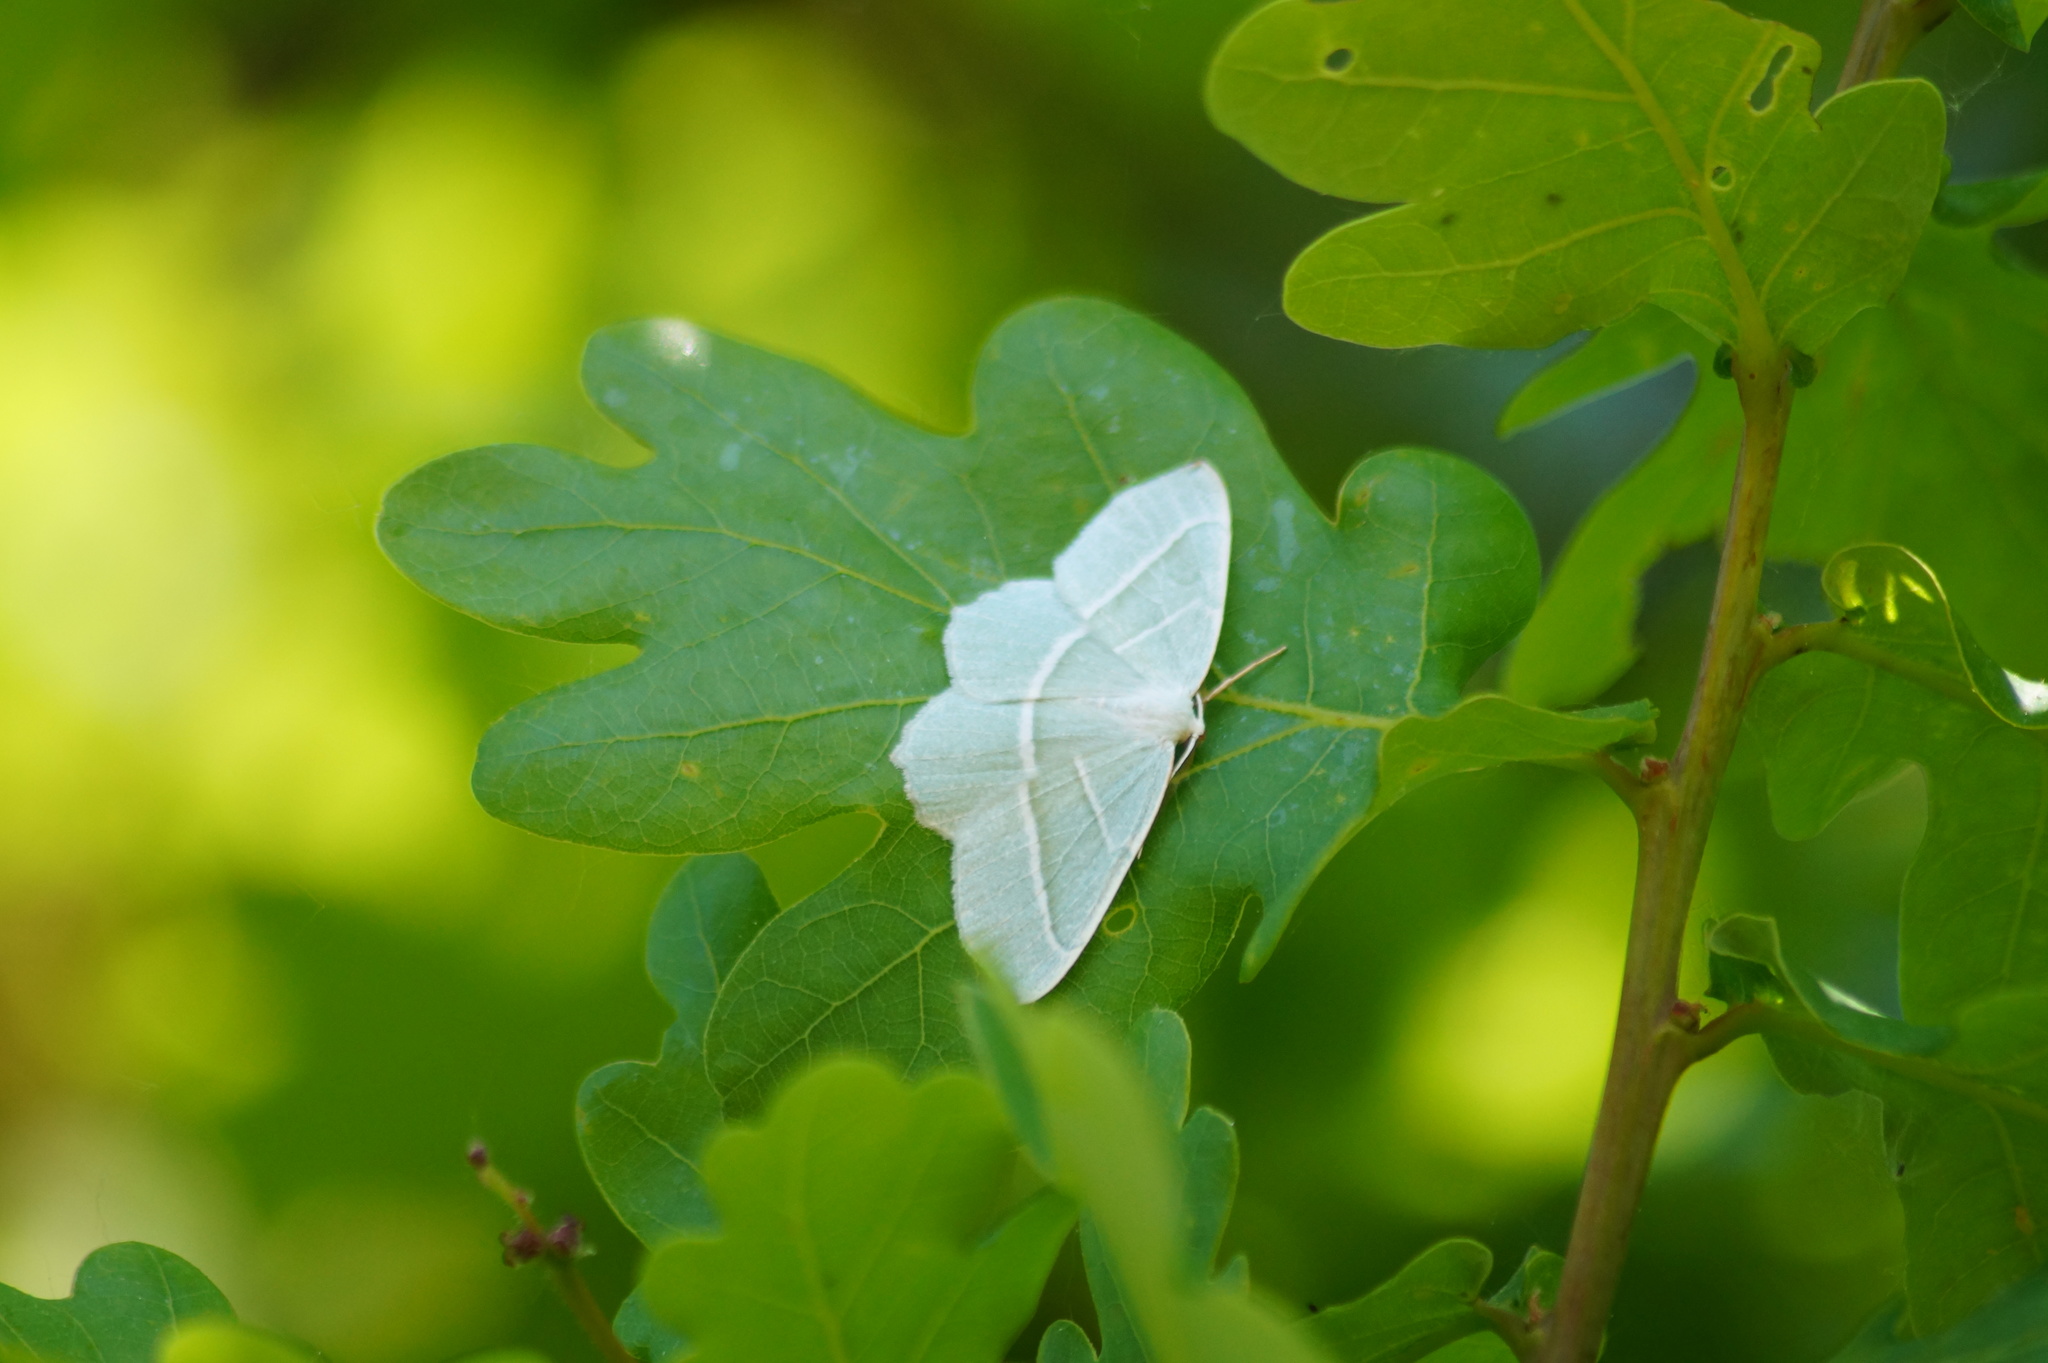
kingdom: Animalia
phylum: Arthropoda
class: Insecta
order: Lepidoptera
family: Geometridae
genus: Campaea
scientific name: Campaea margaritaria
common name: Light emerald
